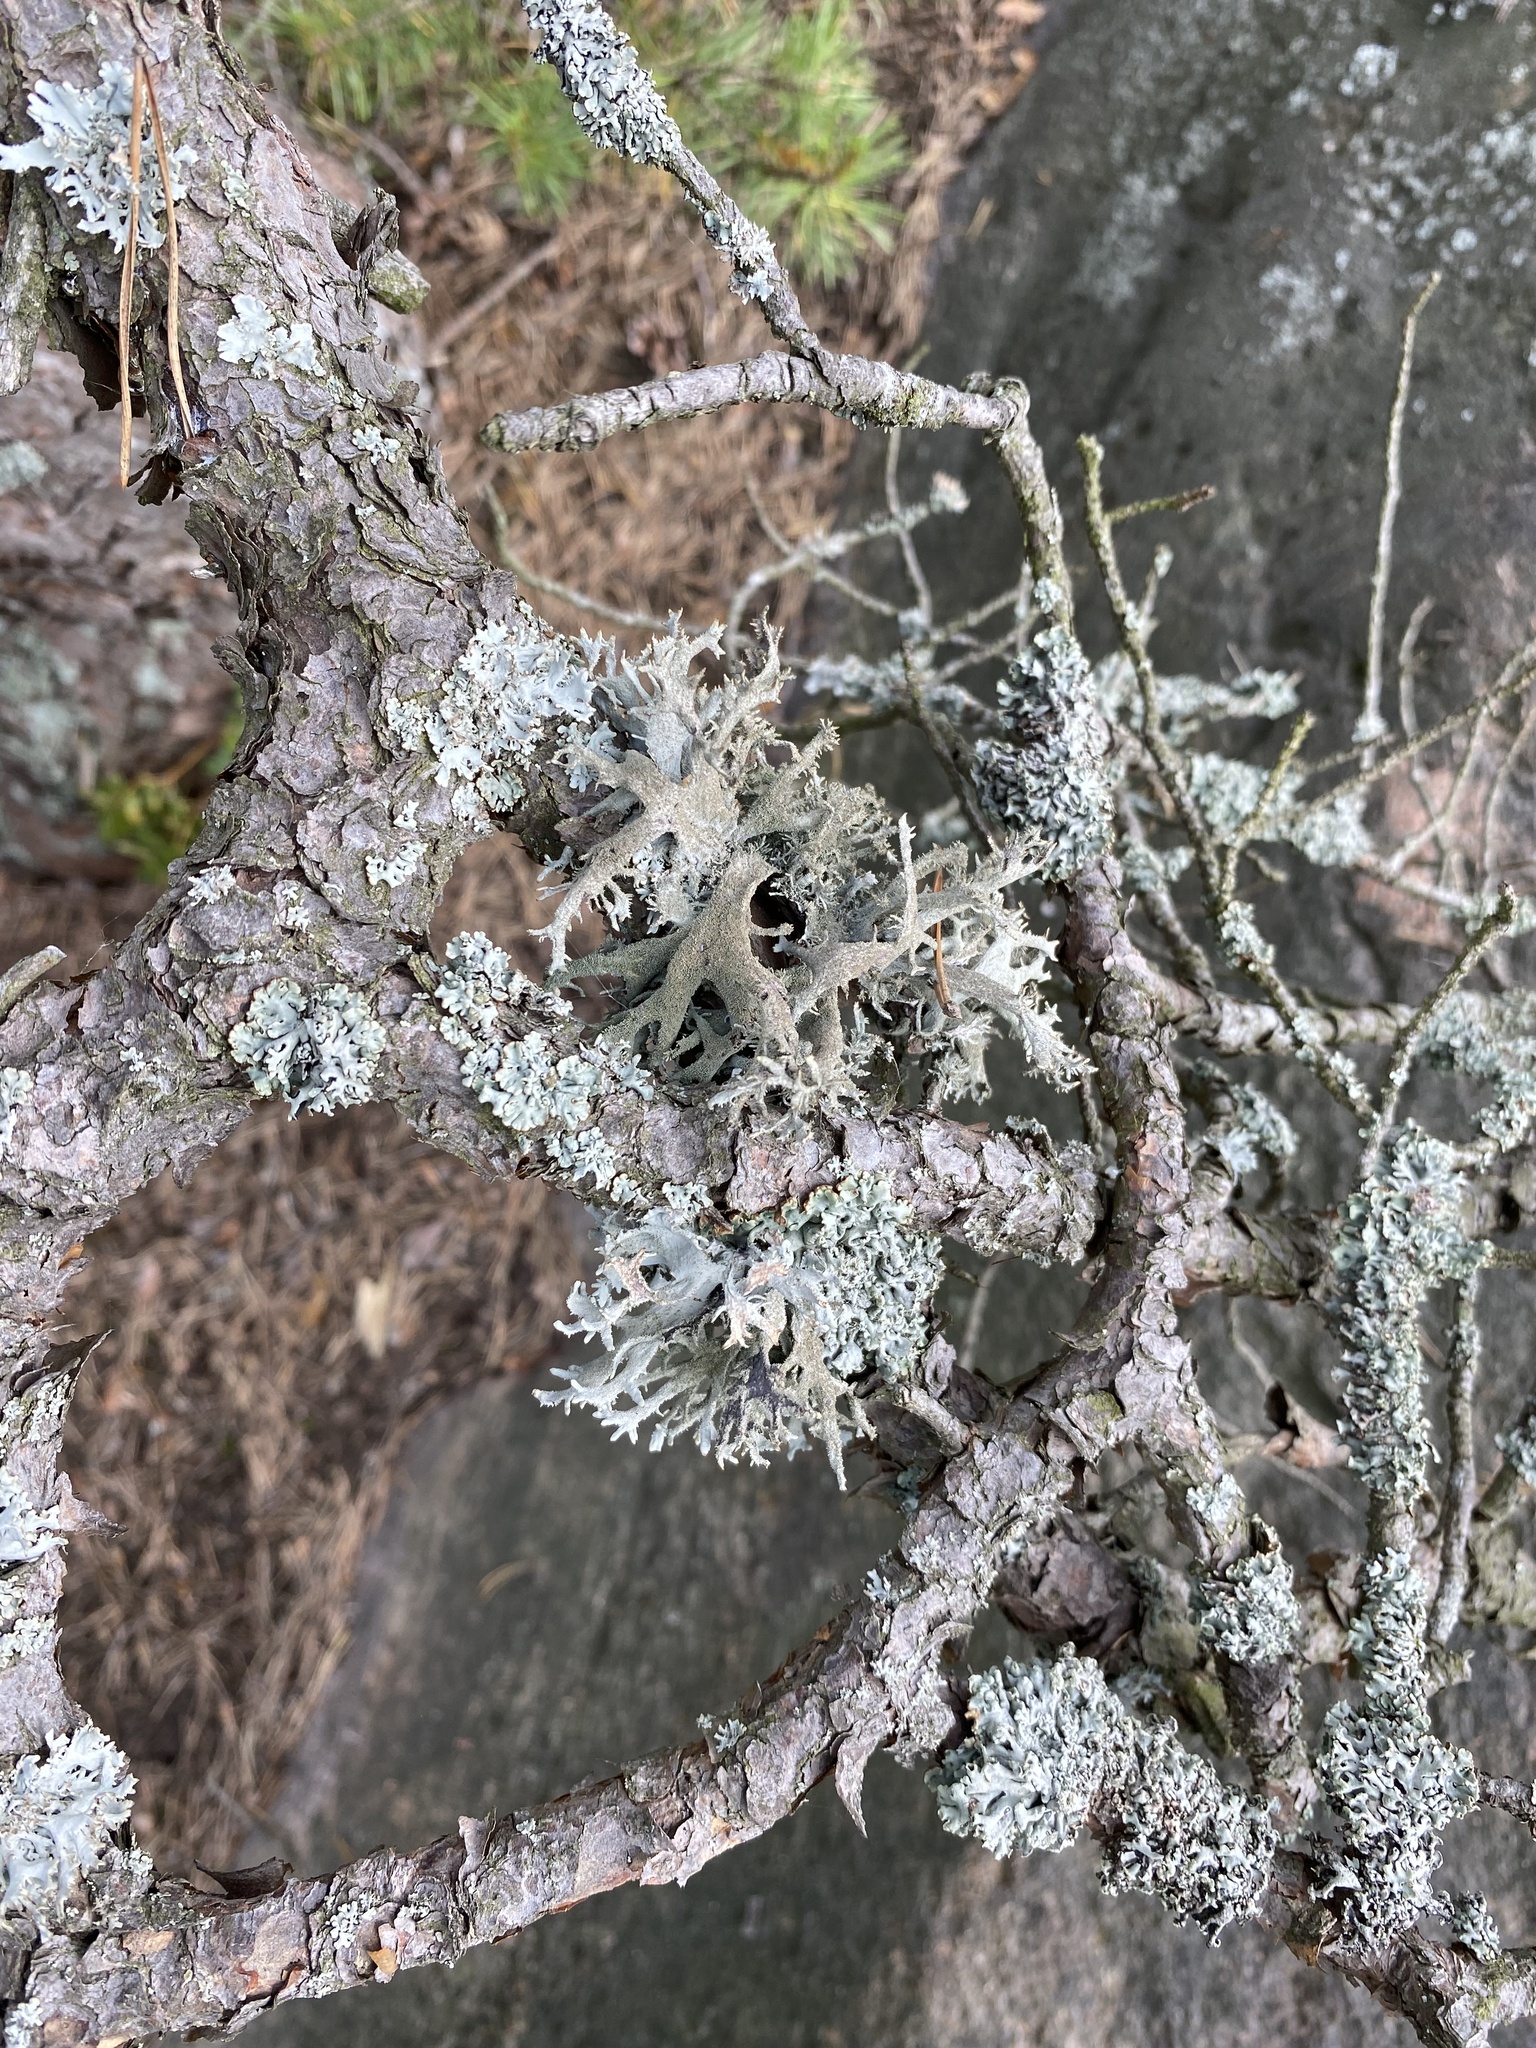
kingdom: Fungi
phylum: Ascomycota
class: Lecanoromycetes
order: Lecanorales
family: Parmeliaceae
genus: Pseudevernia
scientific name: Pseudevernia furfuracea
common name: Tree moss
